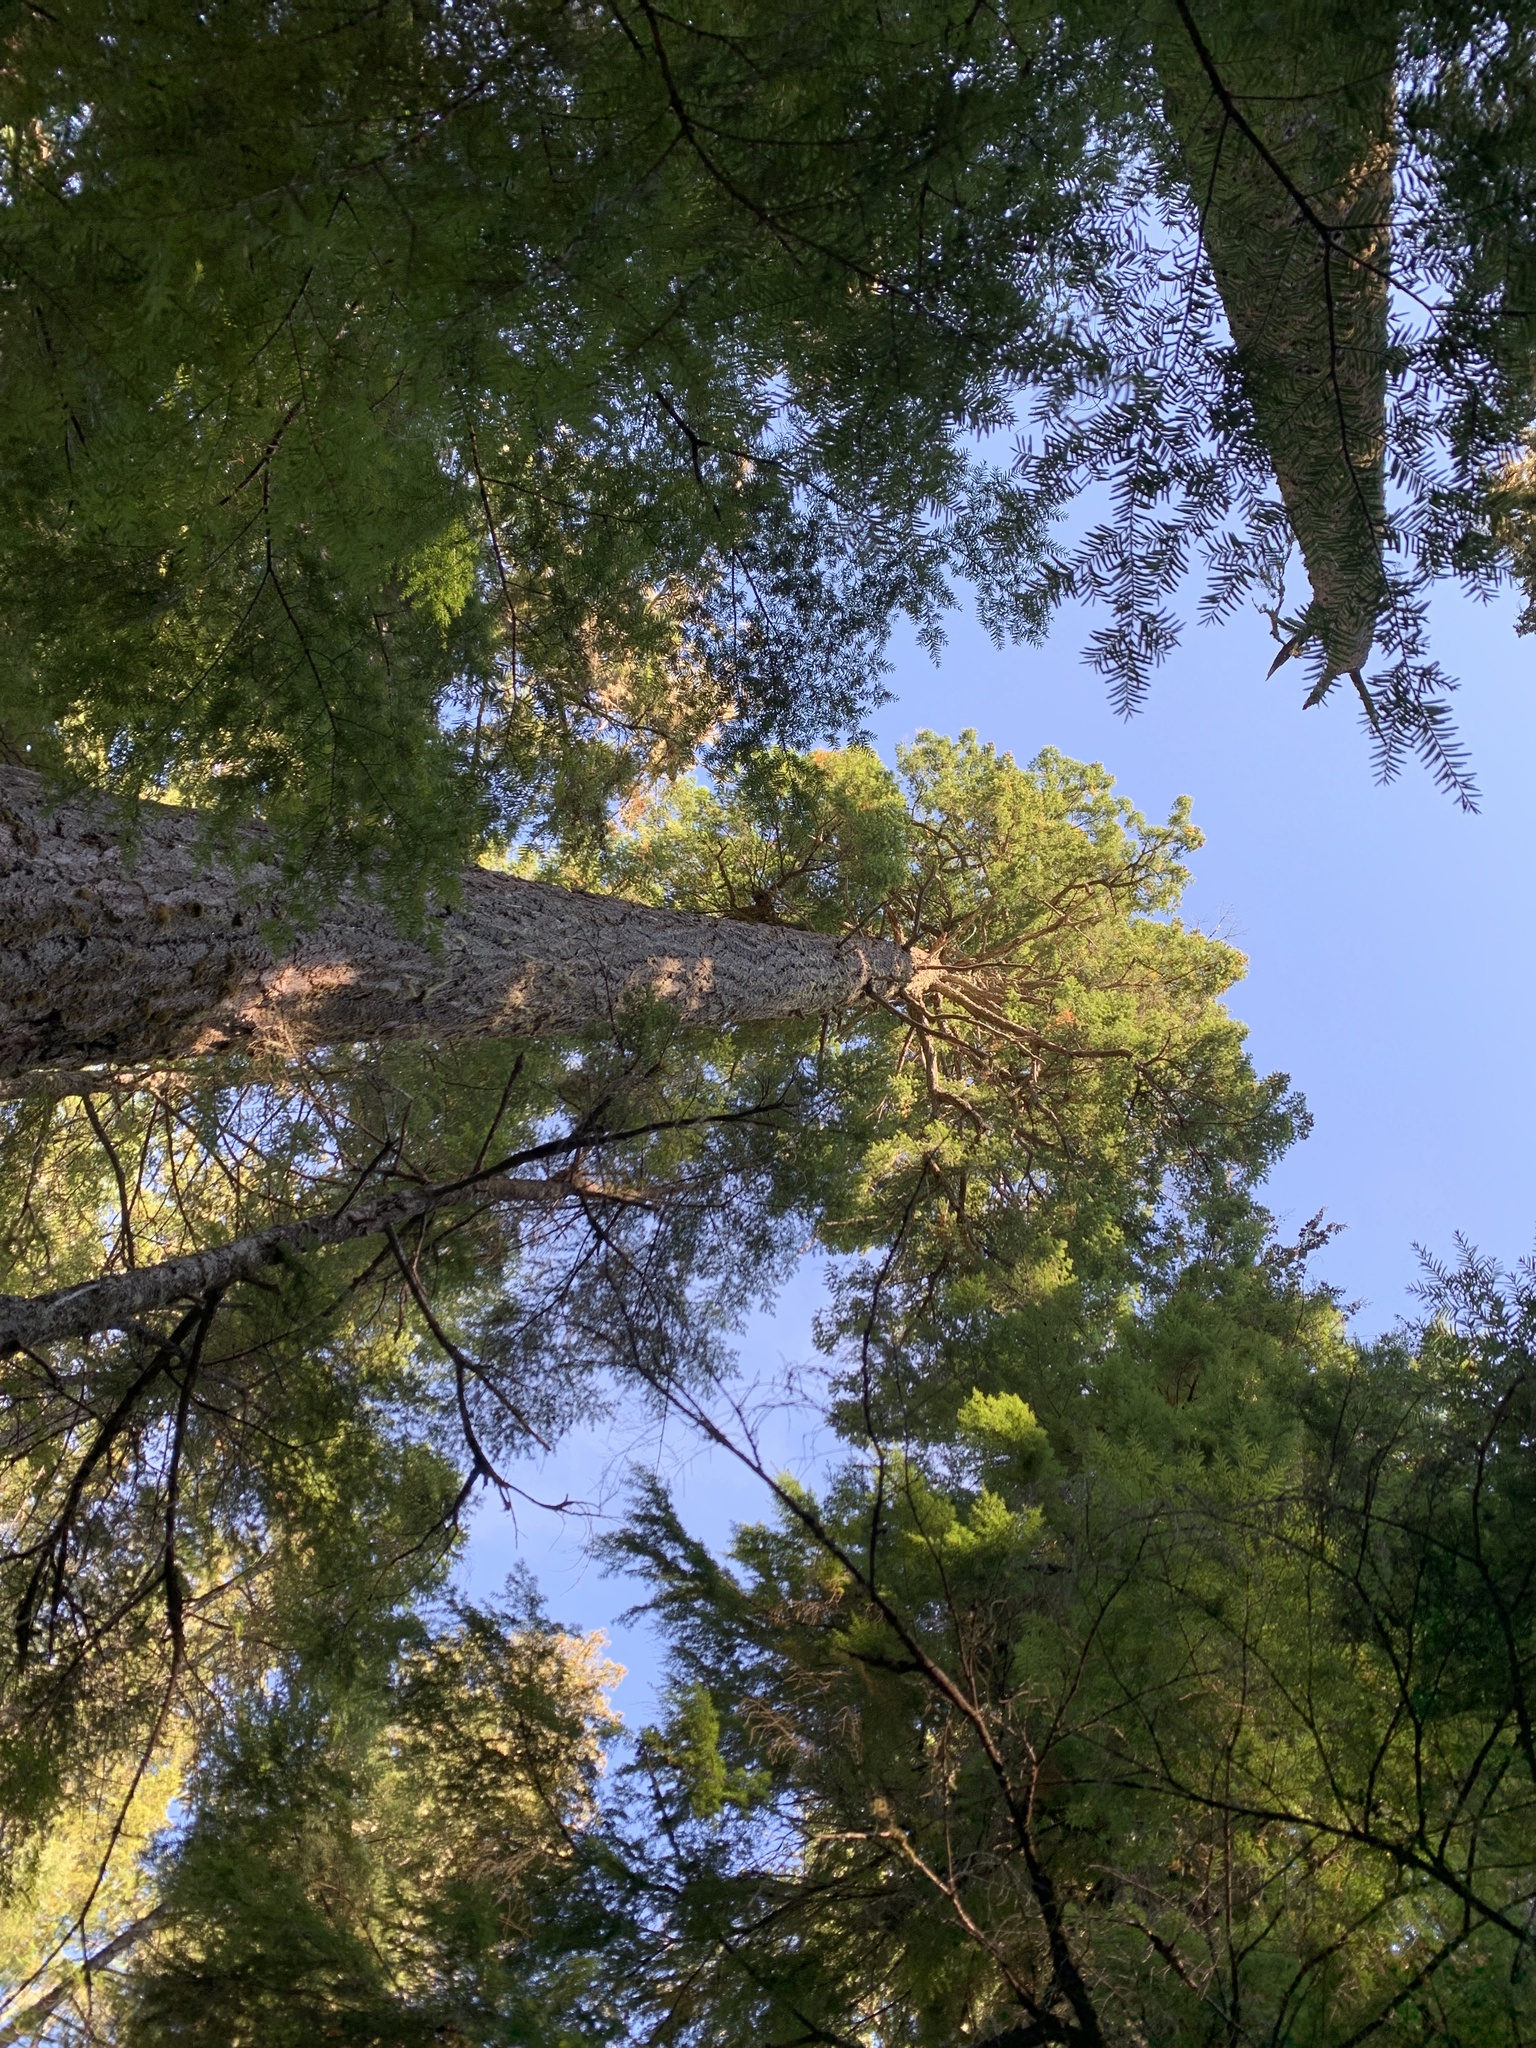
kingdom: Plantae
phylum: Tracheophyta
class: Pinopsida
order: Pinales
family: Pinaceae
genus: Pseudotsuga
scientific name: Pseudotsuga menziesii
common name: Douglas fir
